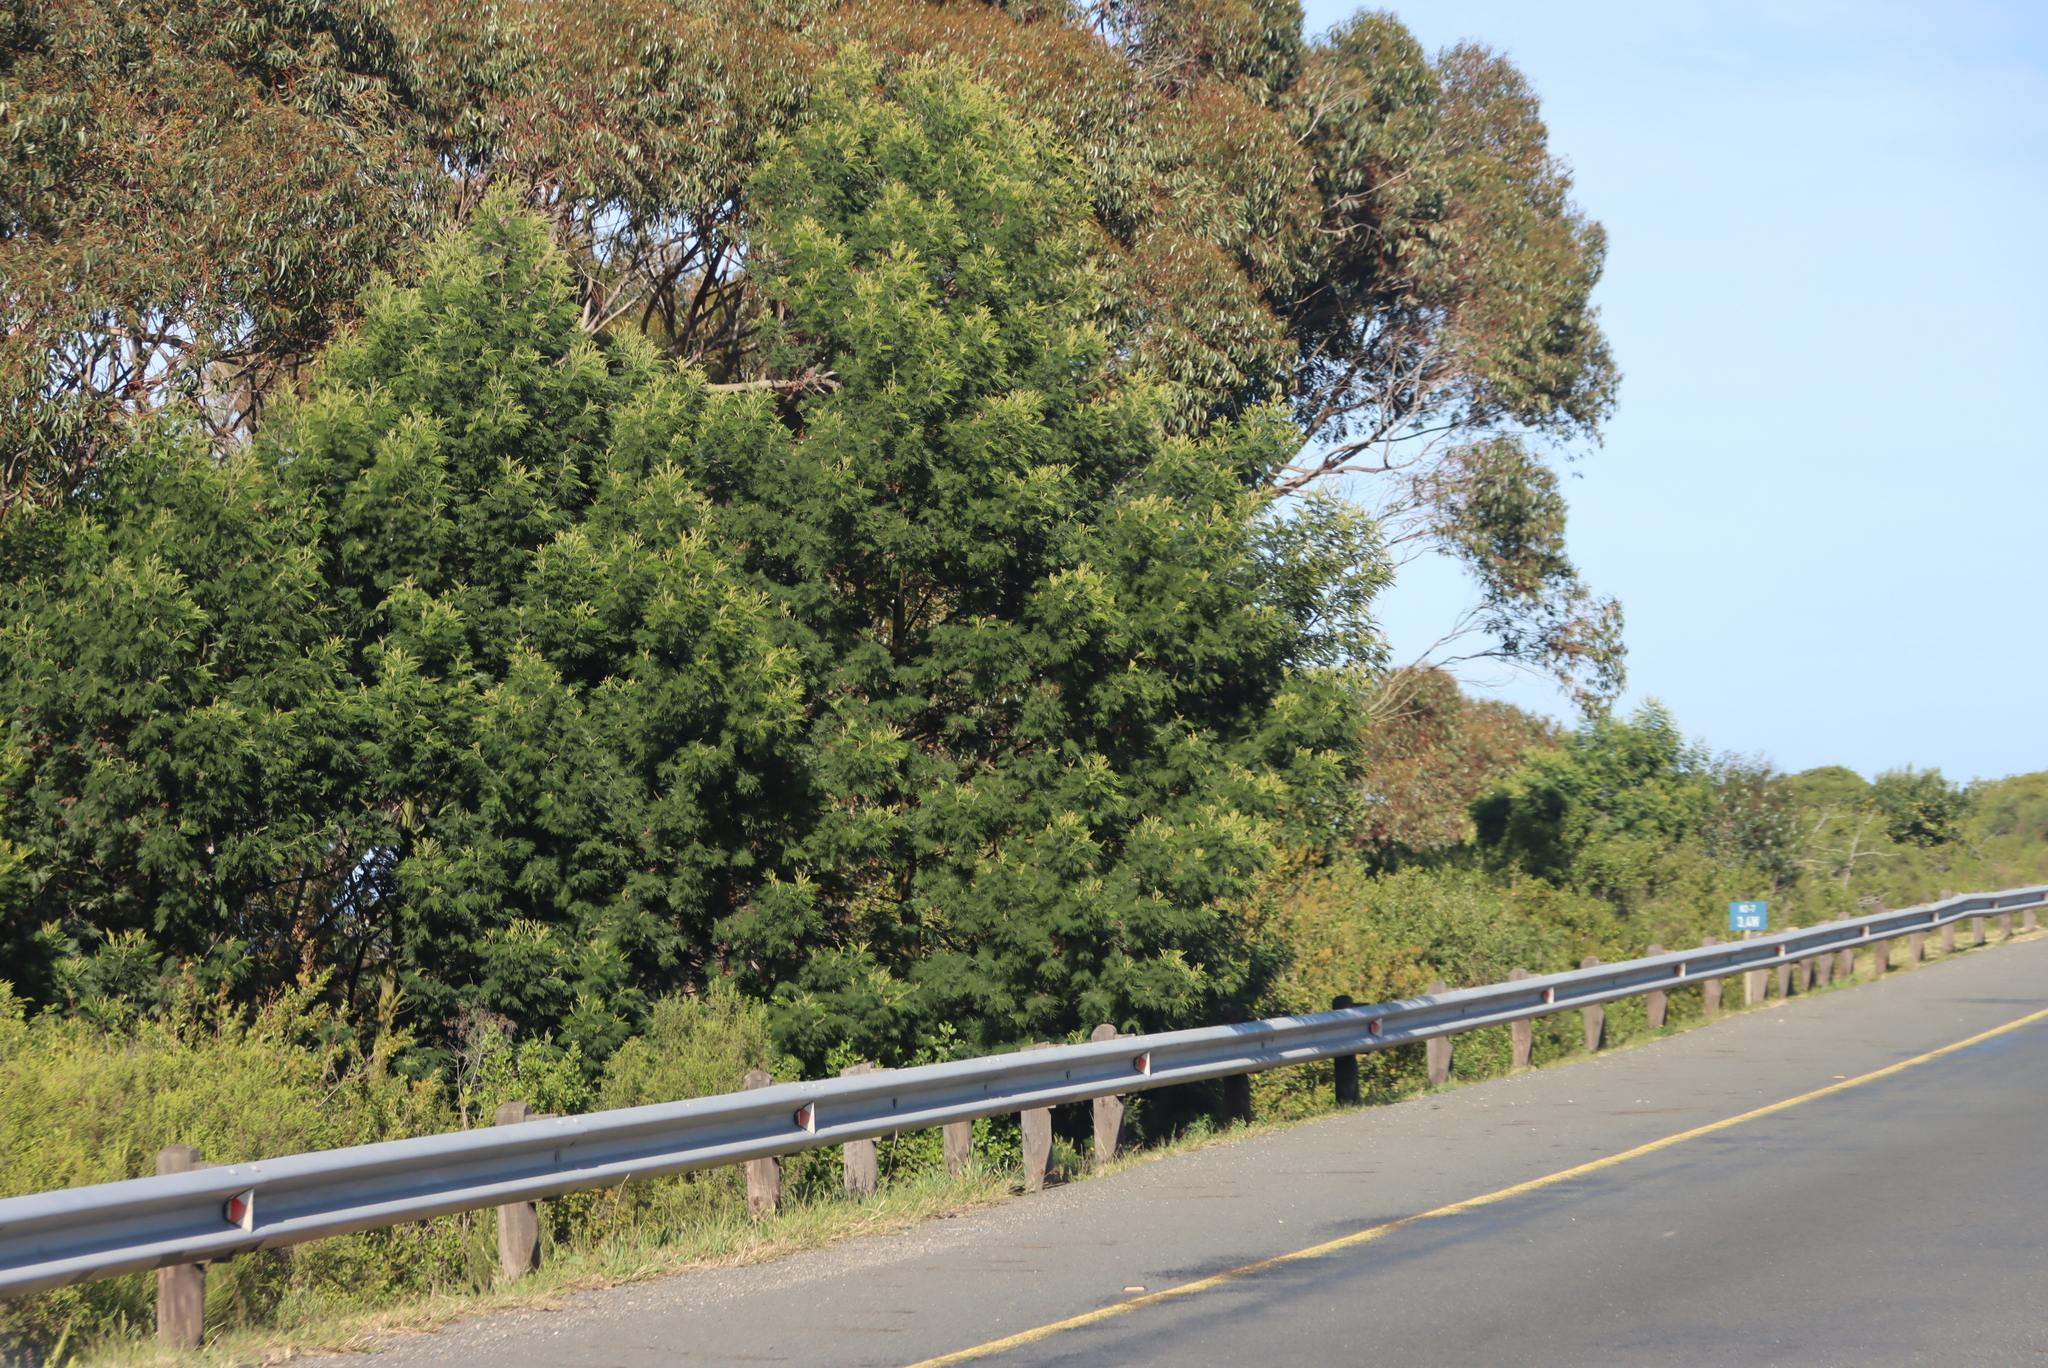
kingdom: Plantae
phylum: Tracheophyta
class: Magnoliopsida
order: Fabales
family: Fabaceae
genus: Acacia
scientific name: Acacia mearnsii
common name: Black wattle
